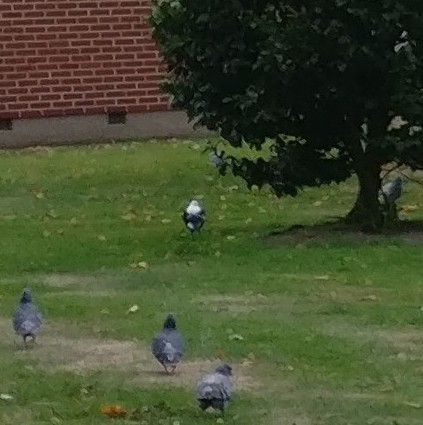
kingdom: Animalia
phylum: Chordata
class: Aves
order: Passeriformes
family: Cracticidae
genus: Gymnorhina
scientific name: Gymnorhina tibicen
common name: Australian magpie
